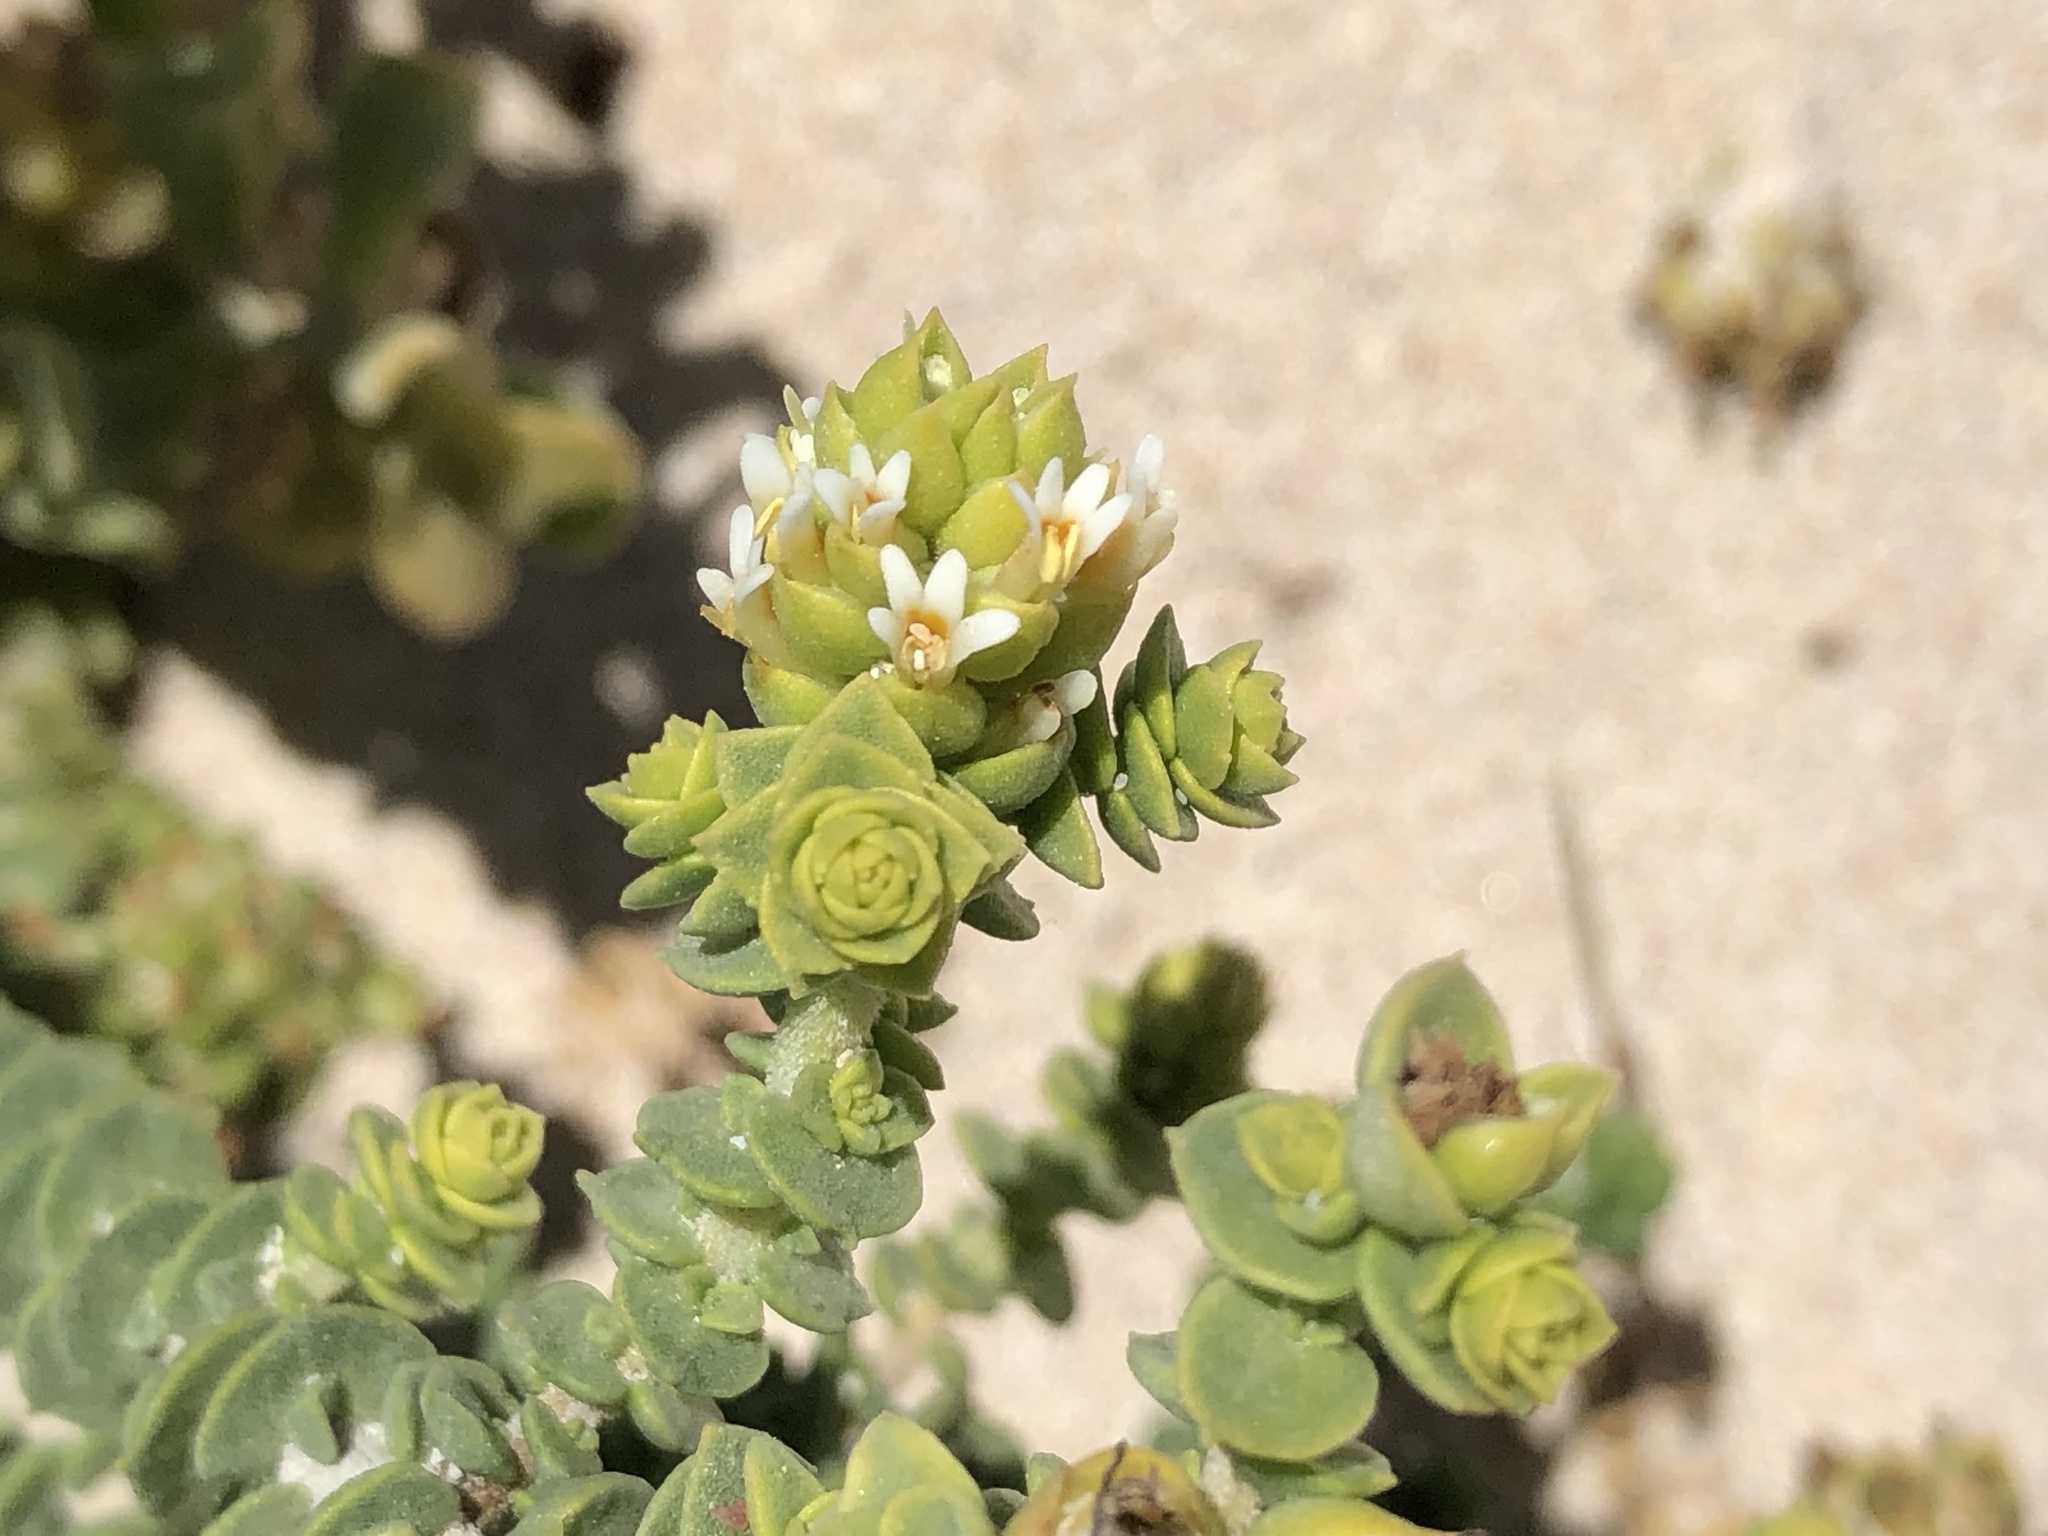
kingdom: Plantae
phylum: Tracheophyta
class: Magnoliopsida
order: Lamiales
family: Scrophulariaceae
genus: Hebenstretia
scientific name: Hebenstretia cordata
